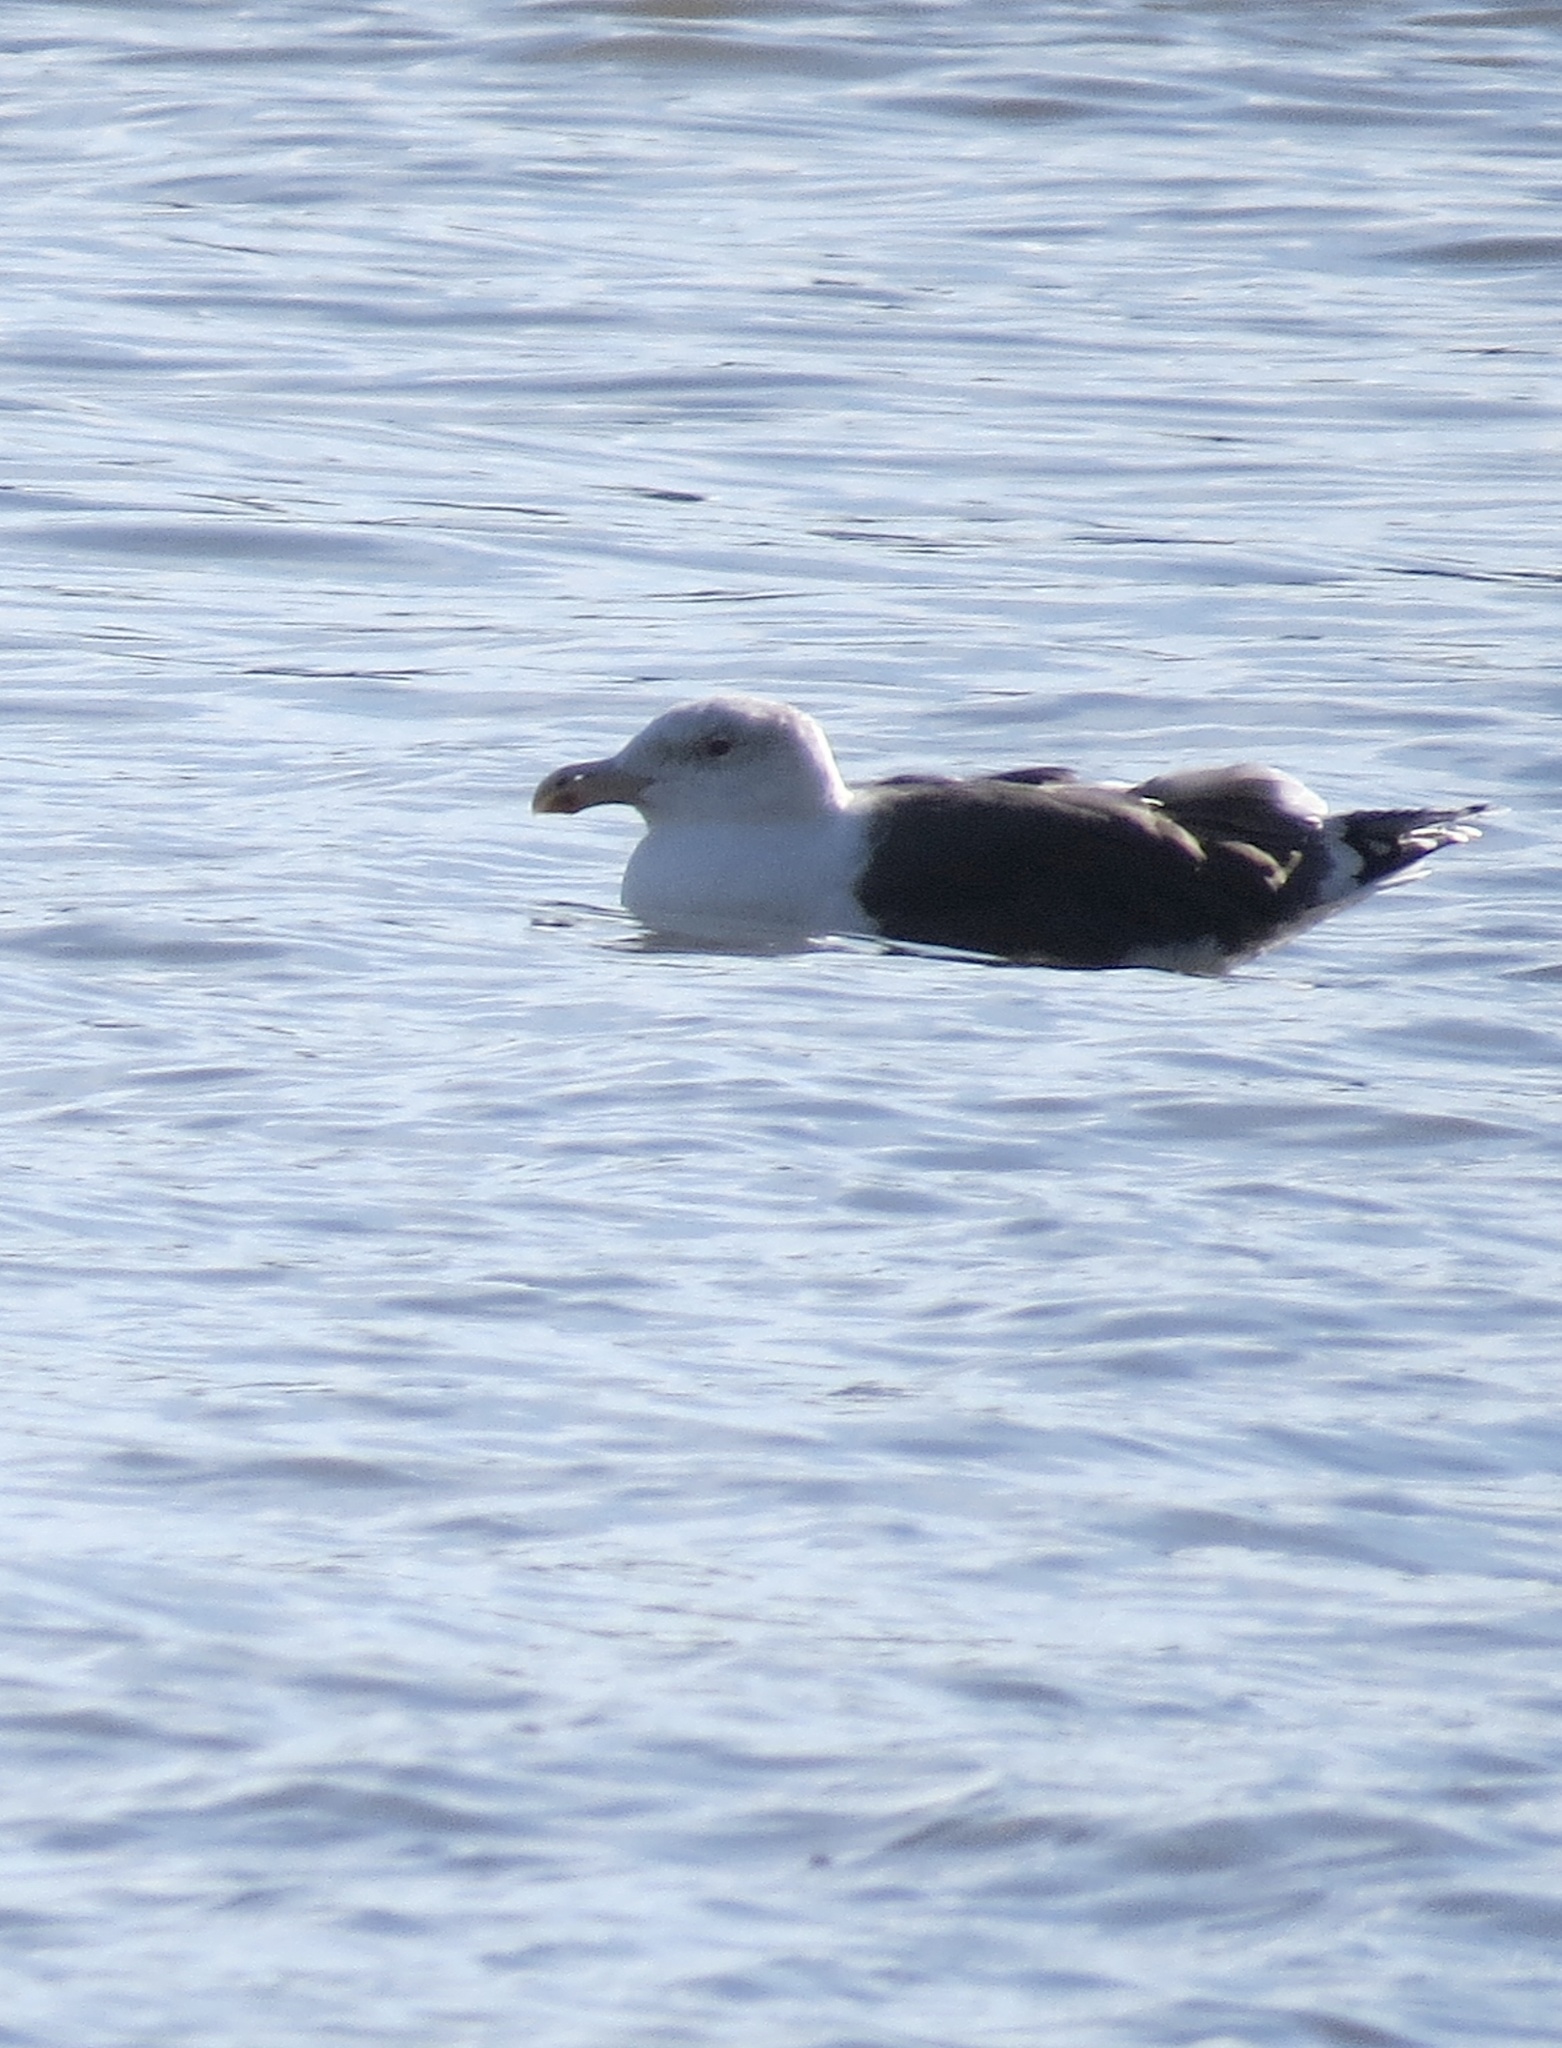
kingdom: Animalia
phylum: Chordata
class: Aves
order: Charadriiformes
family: Laridae
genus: Larus
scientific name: Larus marinus
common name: Great black-backed gull
